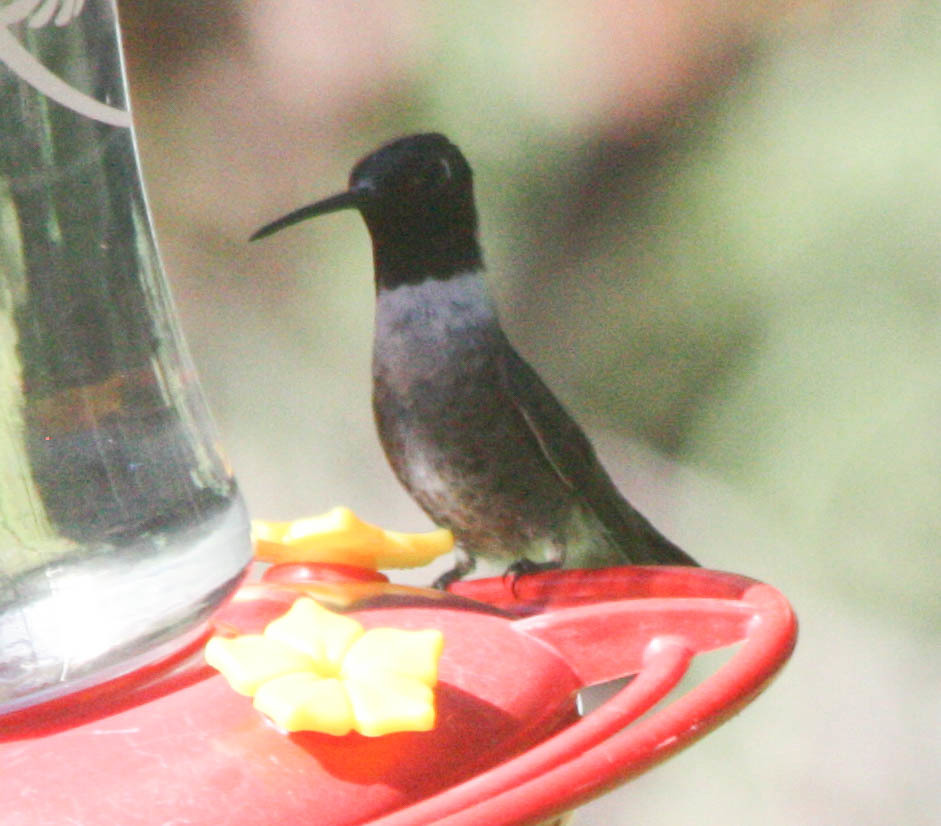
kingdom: Animalia
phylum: Chordata
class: Aves
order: Apodiformes
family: Trochilidae
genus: Archilochus
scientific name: Archilochus alexandri
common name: Black-chinned hummingbird
